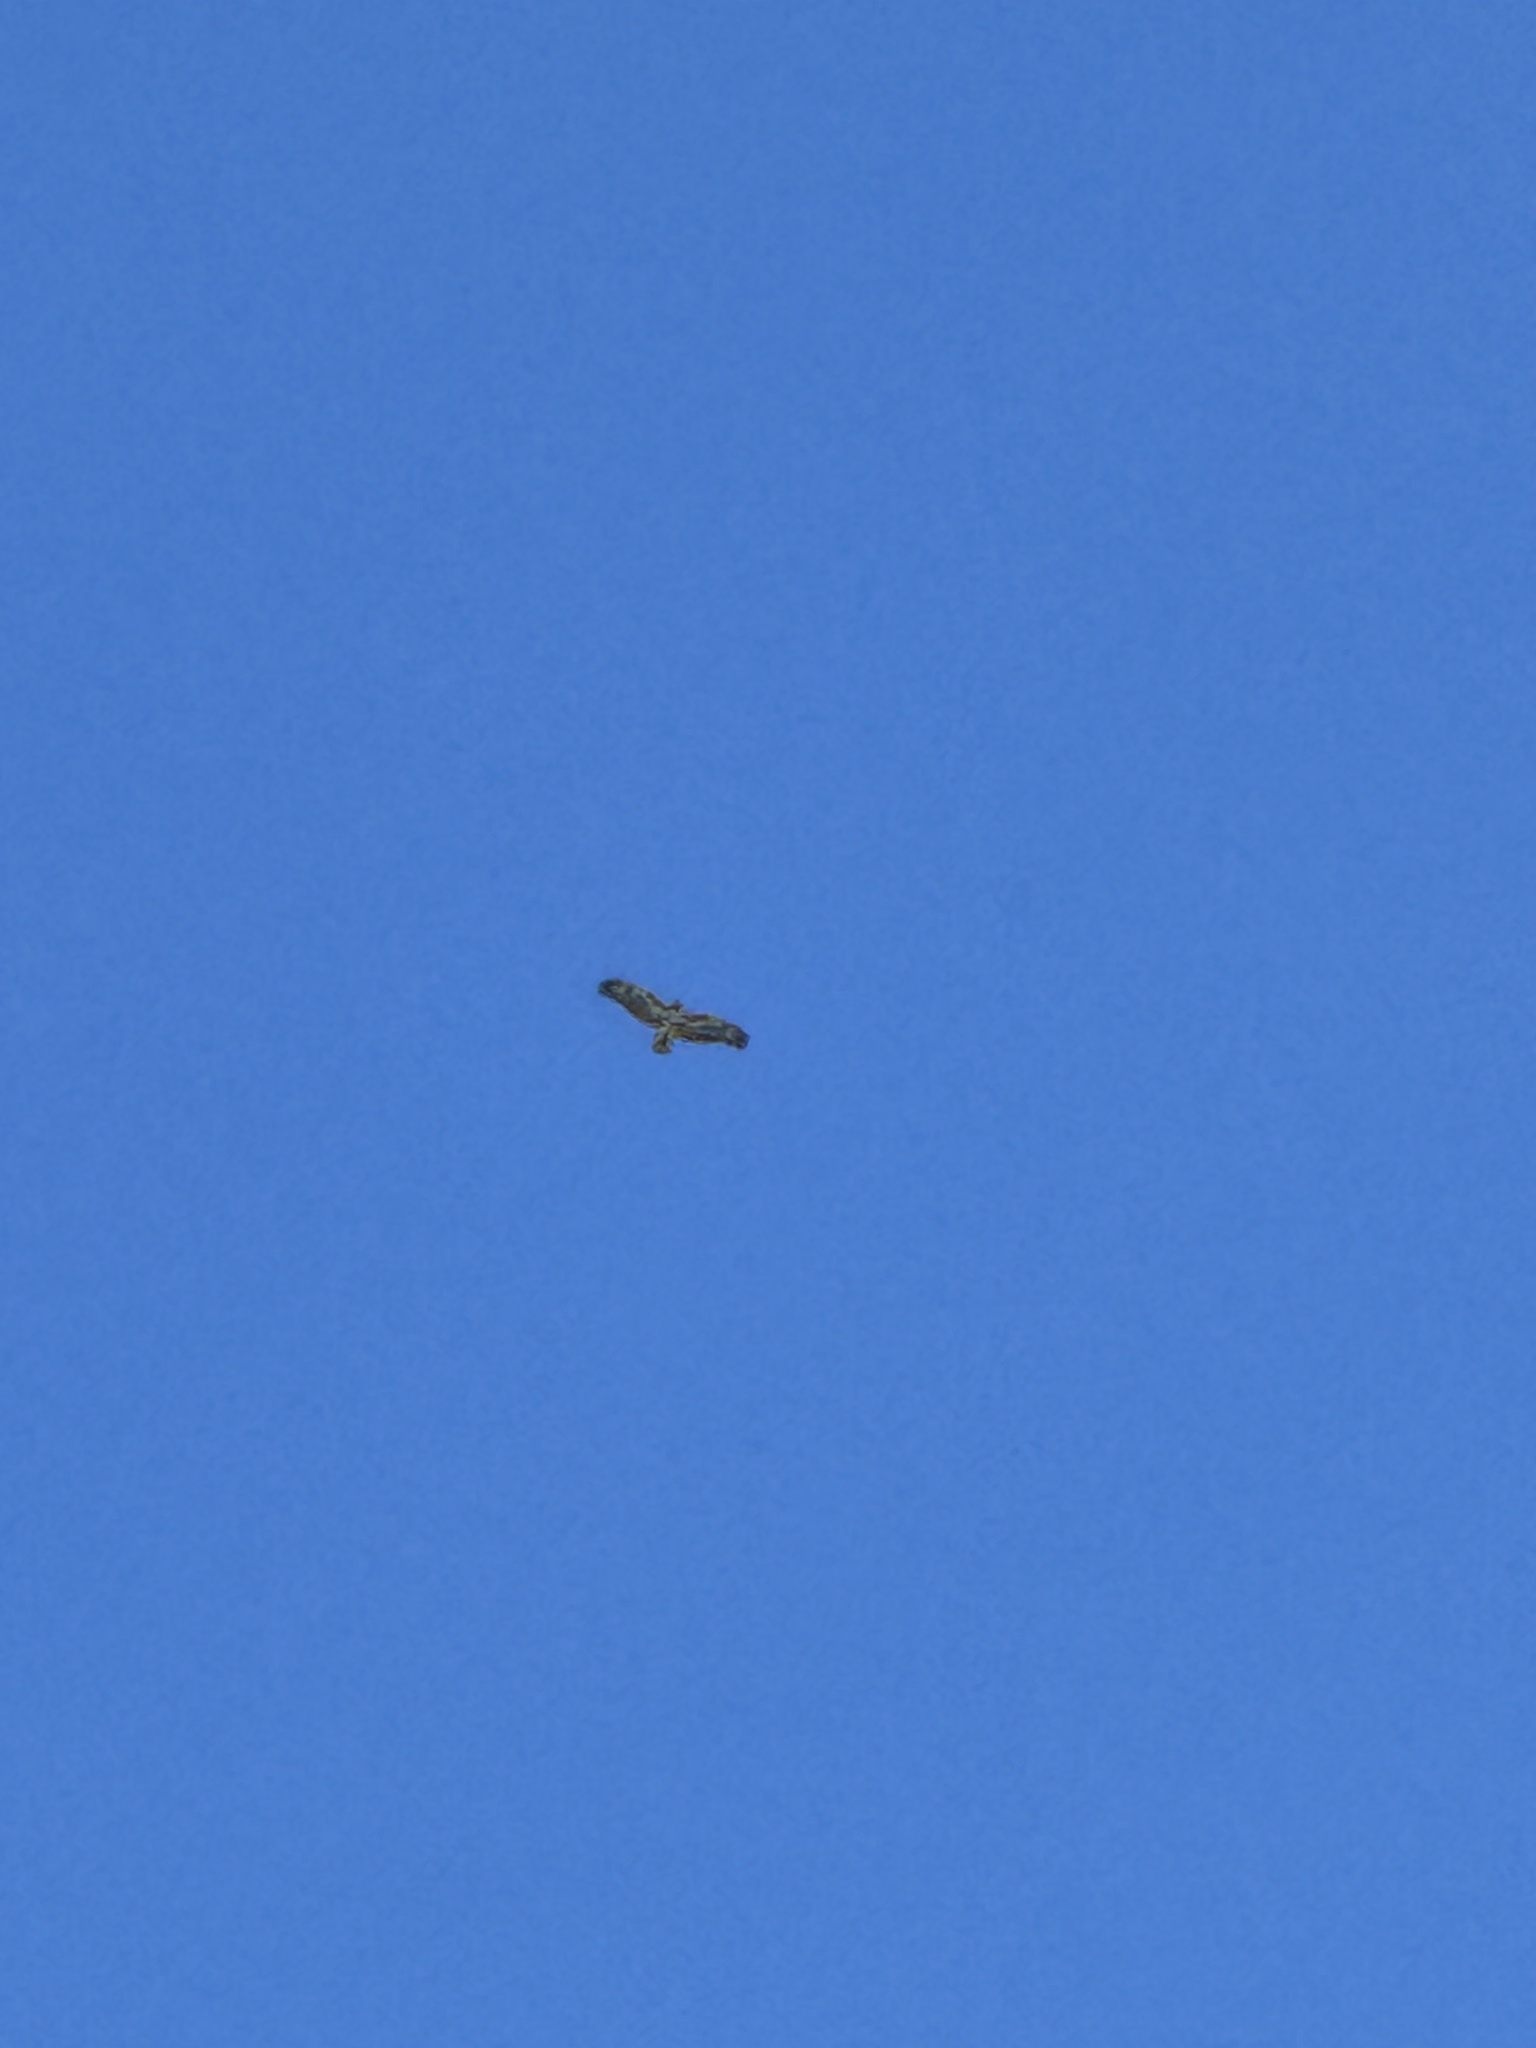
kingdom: Animalia
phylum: Chordata
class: Aves
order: Accipitriformes
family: Accipitridae
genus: Buteo
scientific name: Buteo jamaicensis
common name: Red-tailed hawk
